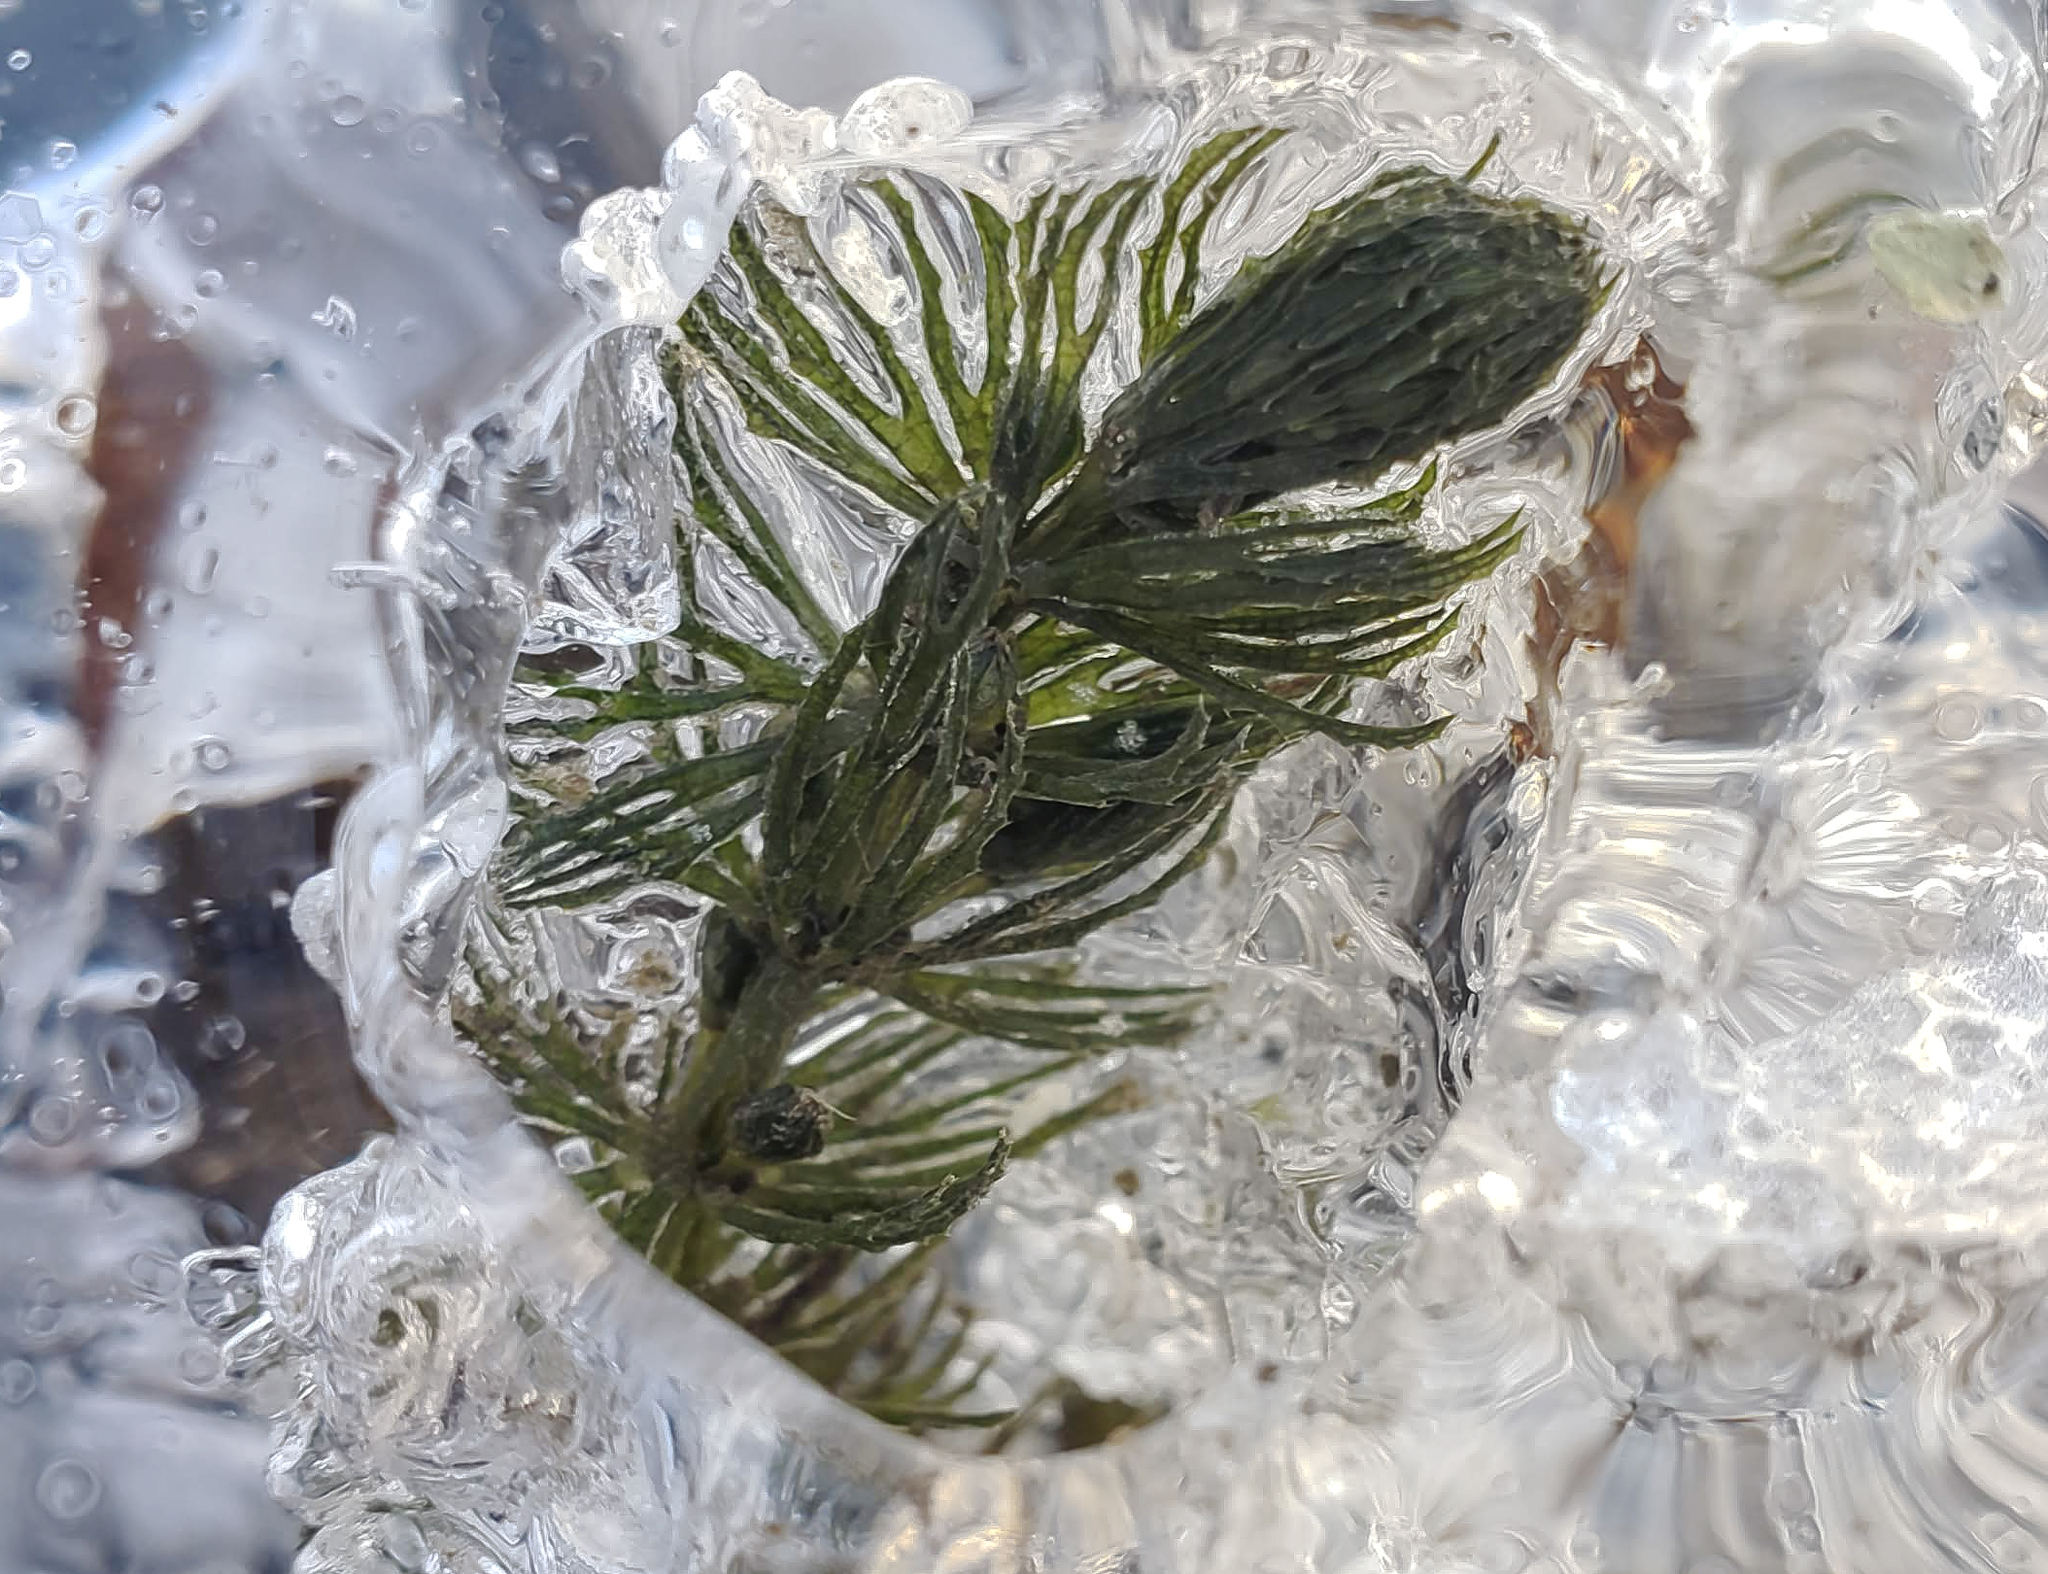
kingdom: Plantae
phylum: Tracheophyta
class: Magnoliopsida
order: Ceratophyllales
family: Ceratophyllaceae
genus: Ceratophyllum
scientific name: Ceratophyllum demersum
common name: Rigid hornwort
